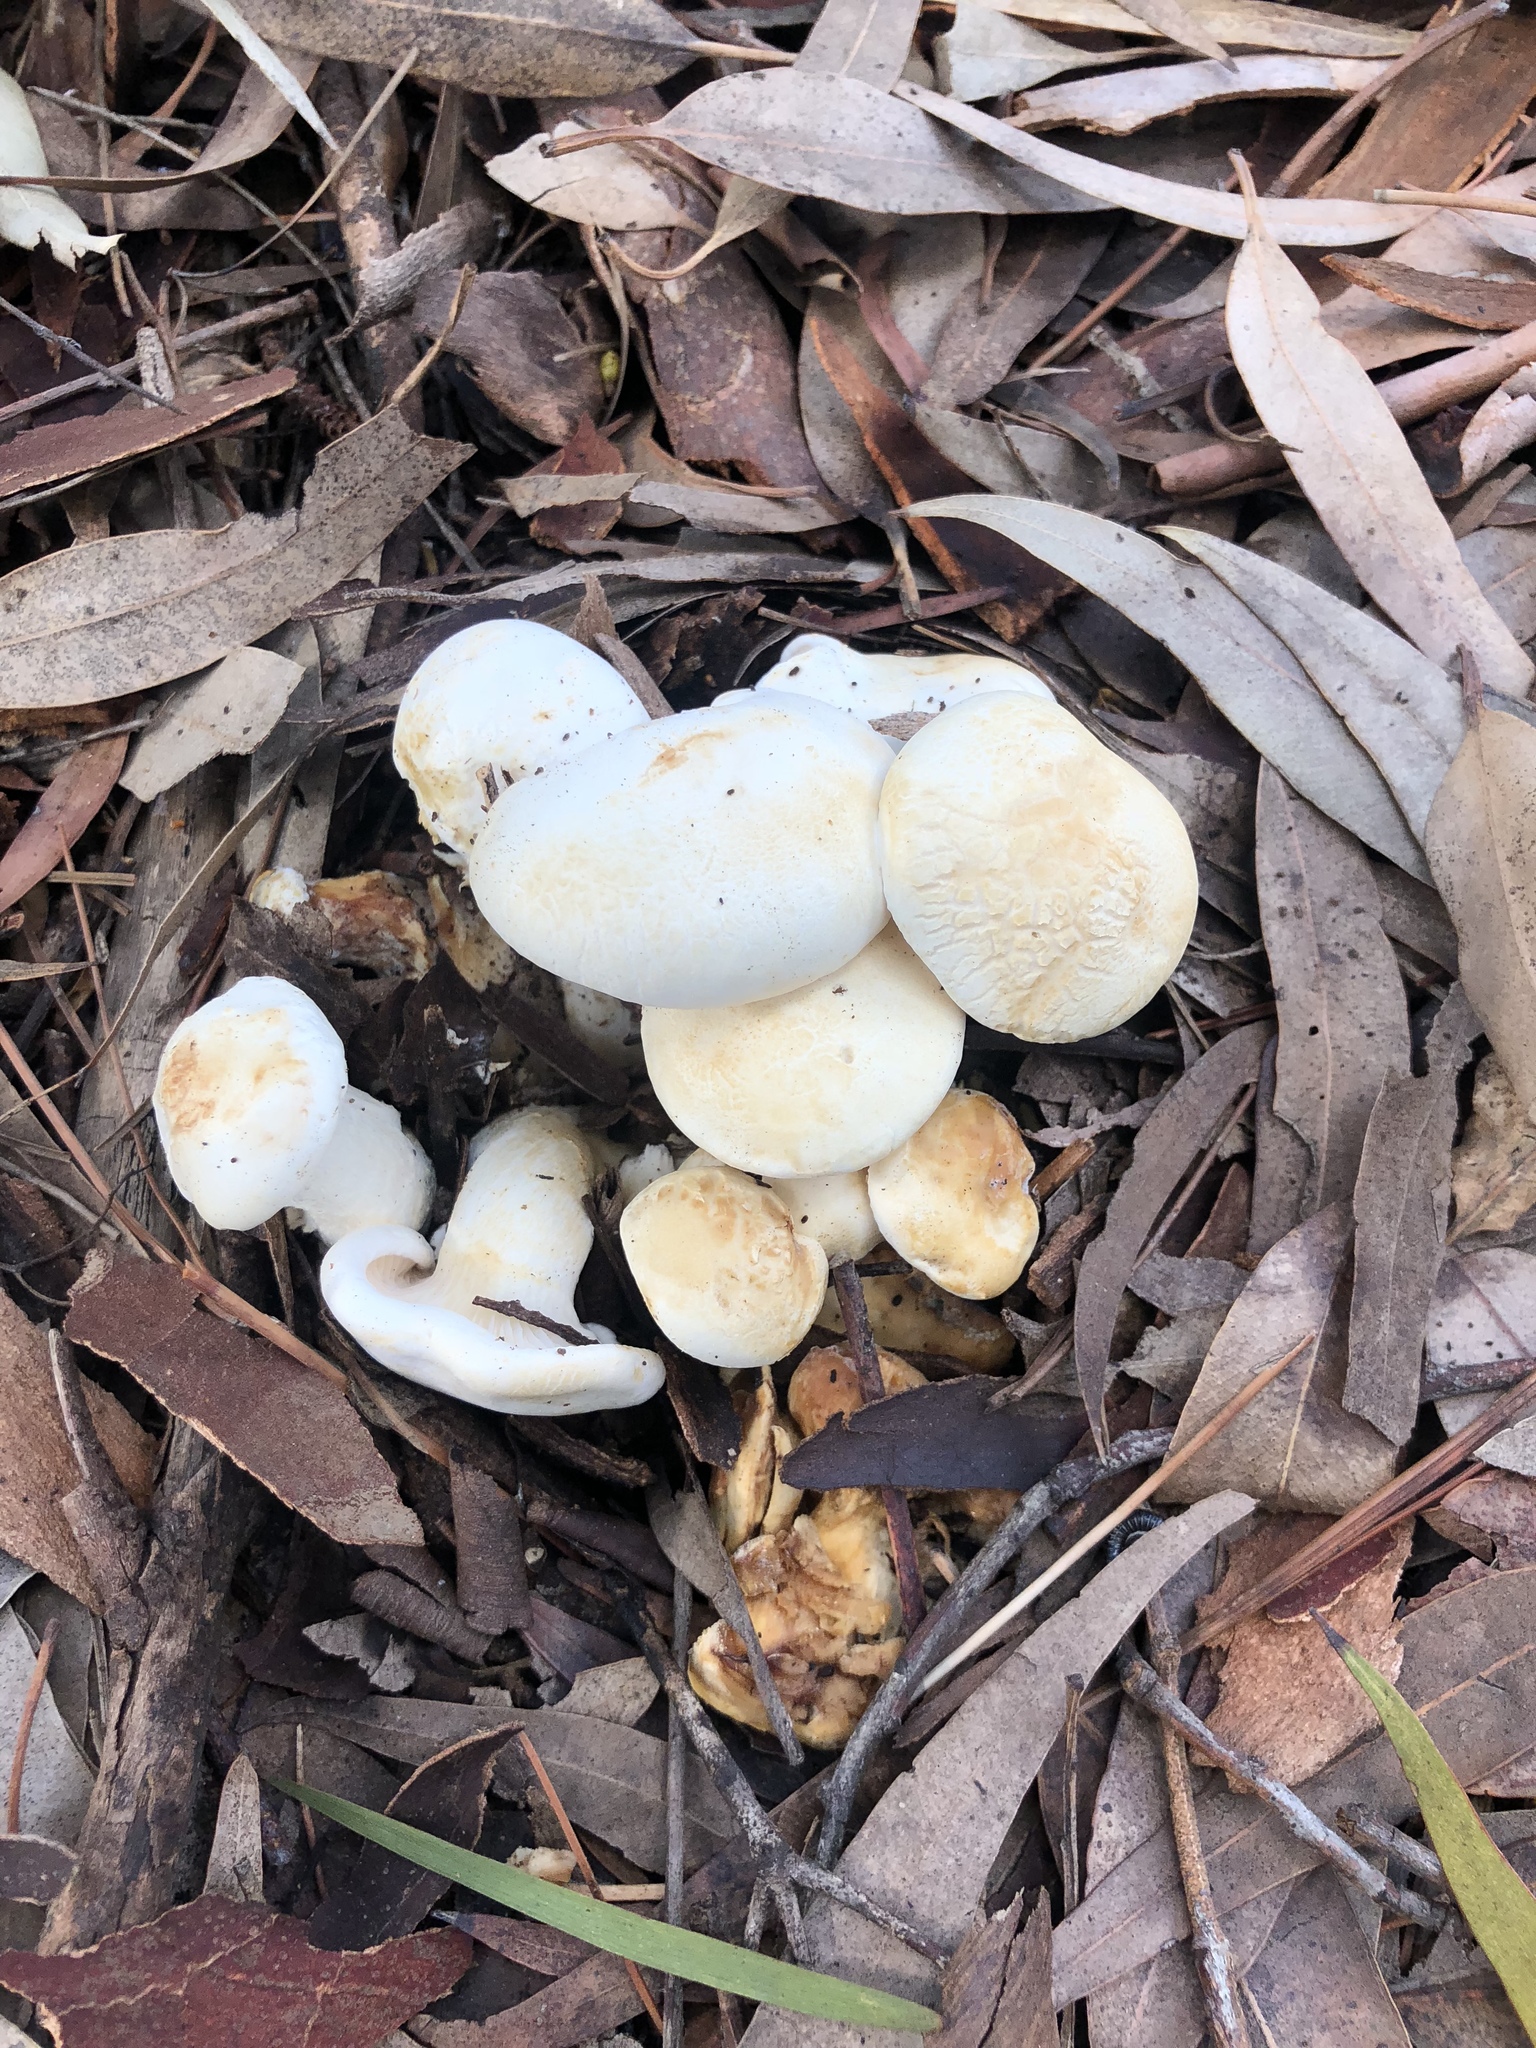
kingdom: Fungi
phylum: Basidiomycota
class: Agaricomycetes
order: Agaricales
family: Tricholomataceae
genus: Leucopaxillus
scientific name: Leucopaxillus cerealis
